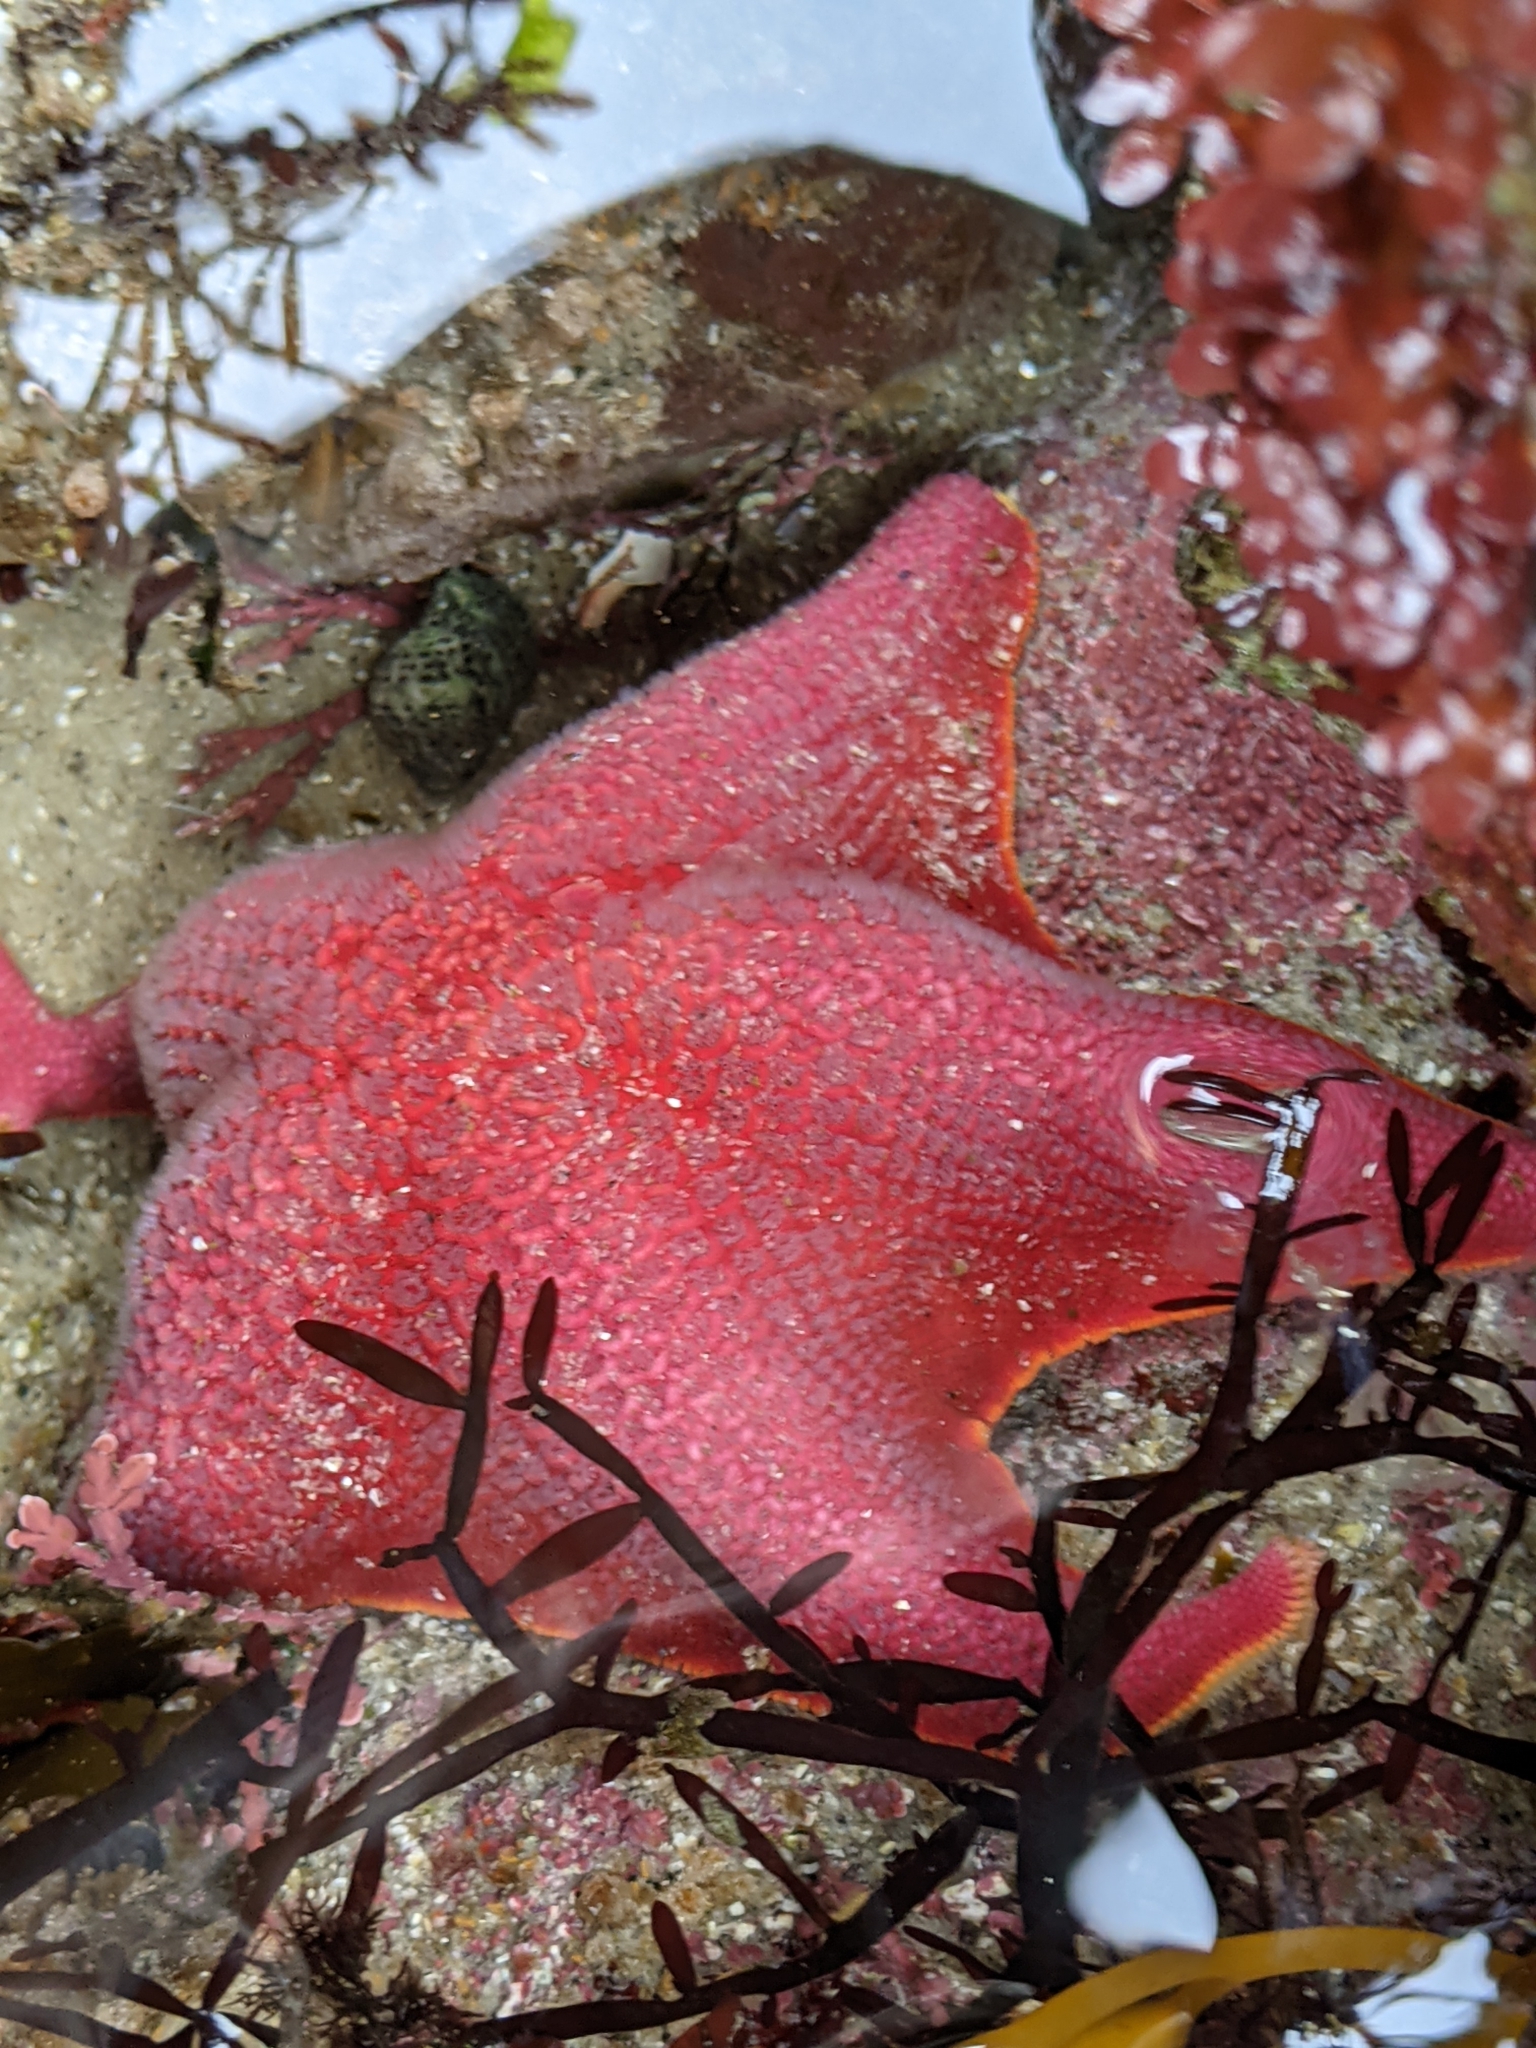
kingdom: Animalia
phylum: Echinodermata
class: Asteroidea
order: Valvatida
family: Asterinidae
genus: Patiria
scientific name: Patiria miniata
